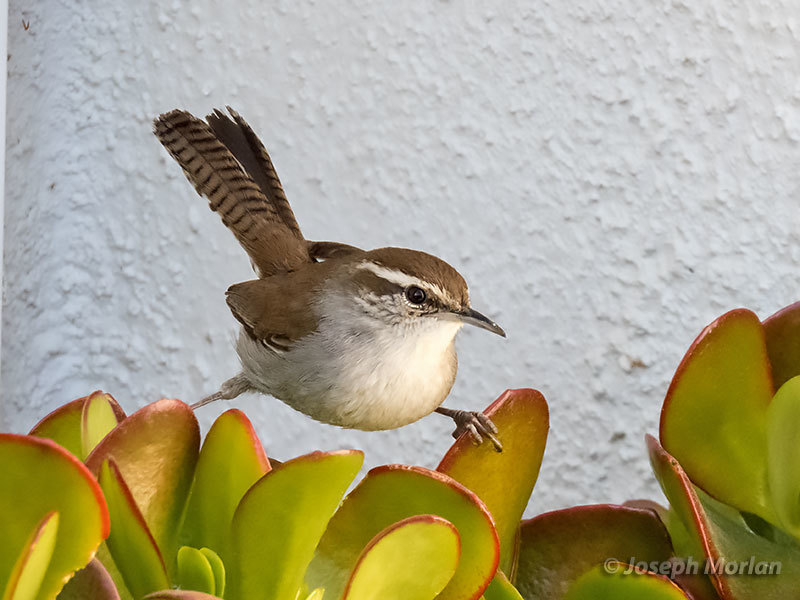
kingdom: Animalia
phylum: Chordata
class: Aves
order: Passeriformes
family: Troglodytidae
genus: Thryomanes
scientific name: Thryomanes bewickii
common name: Bewick's wren
